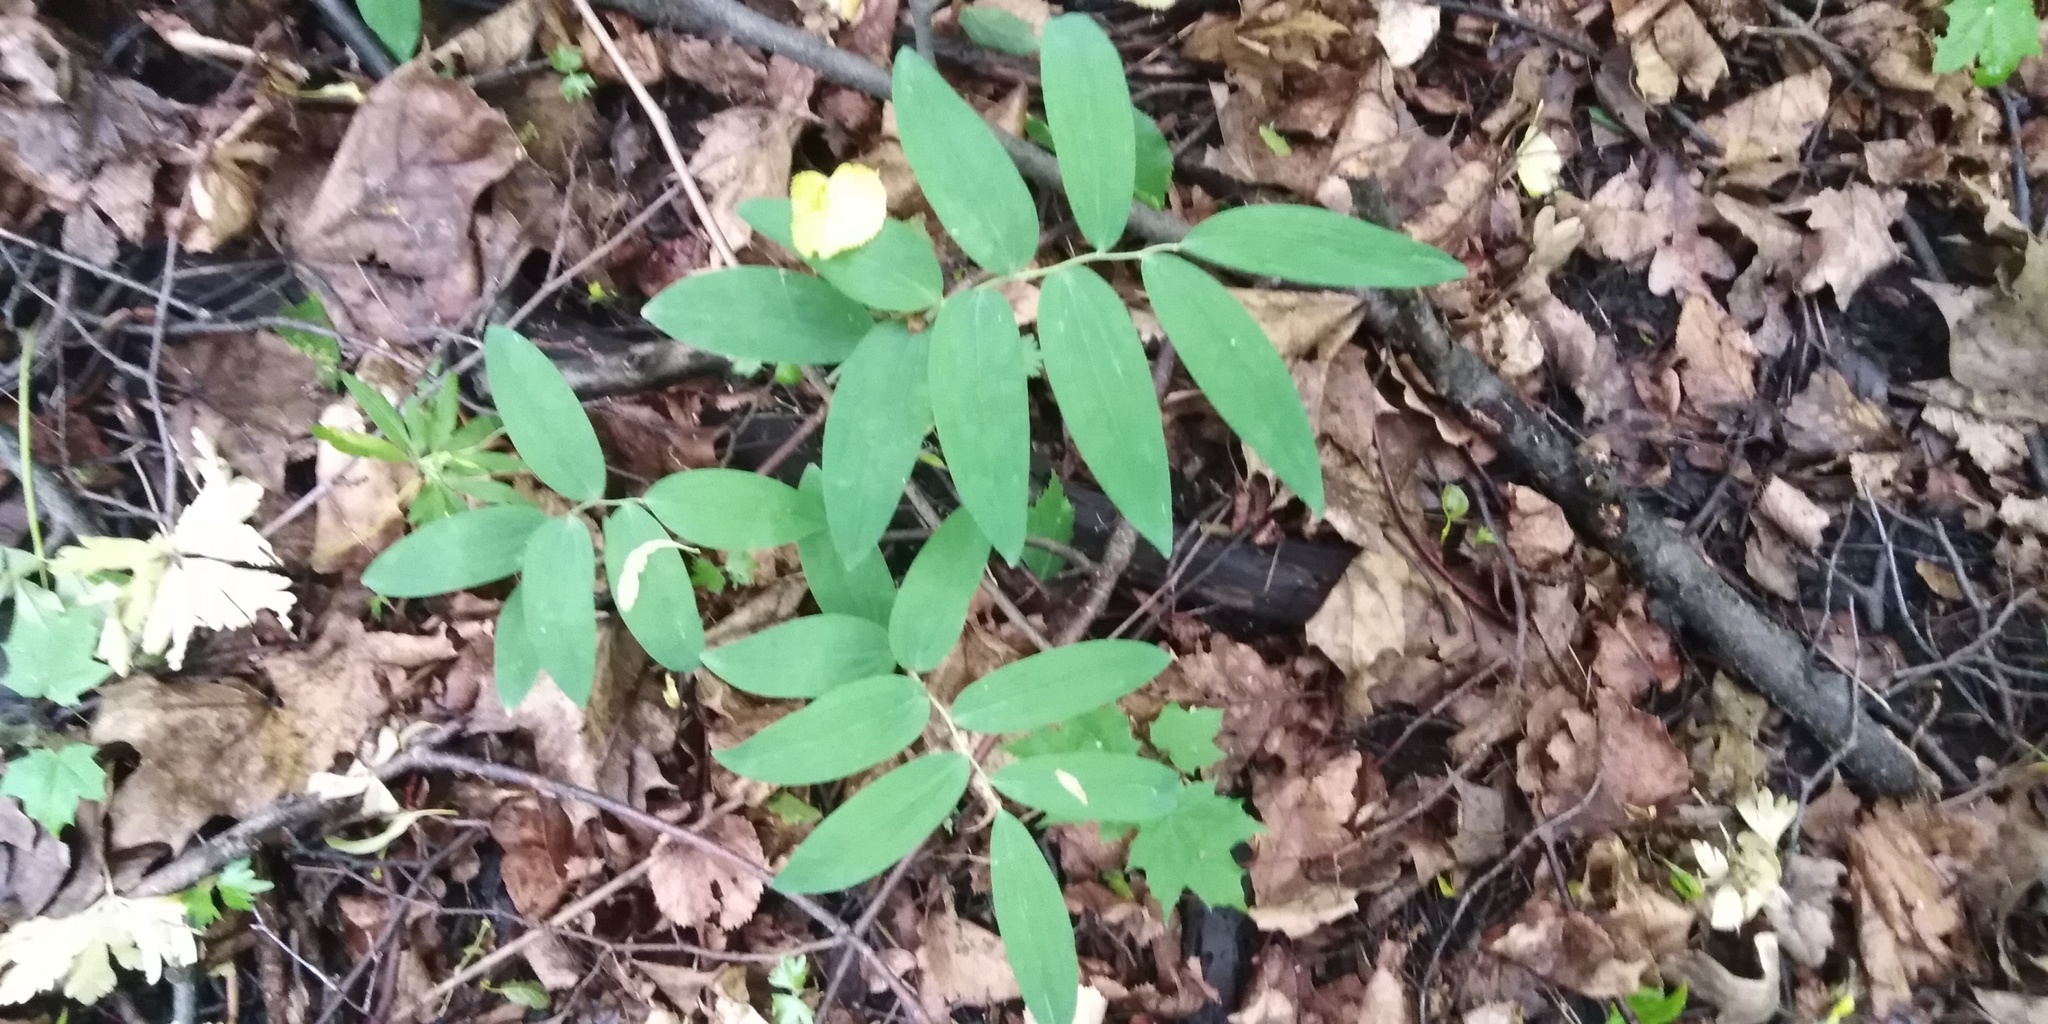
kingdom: Plantae
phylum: Tracheophyta
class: Liliopsida
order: Asparagales
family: Asparagaceae
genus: Polygonatum
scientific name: Polygonatum odoratum
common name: Angular solomon's-seal
